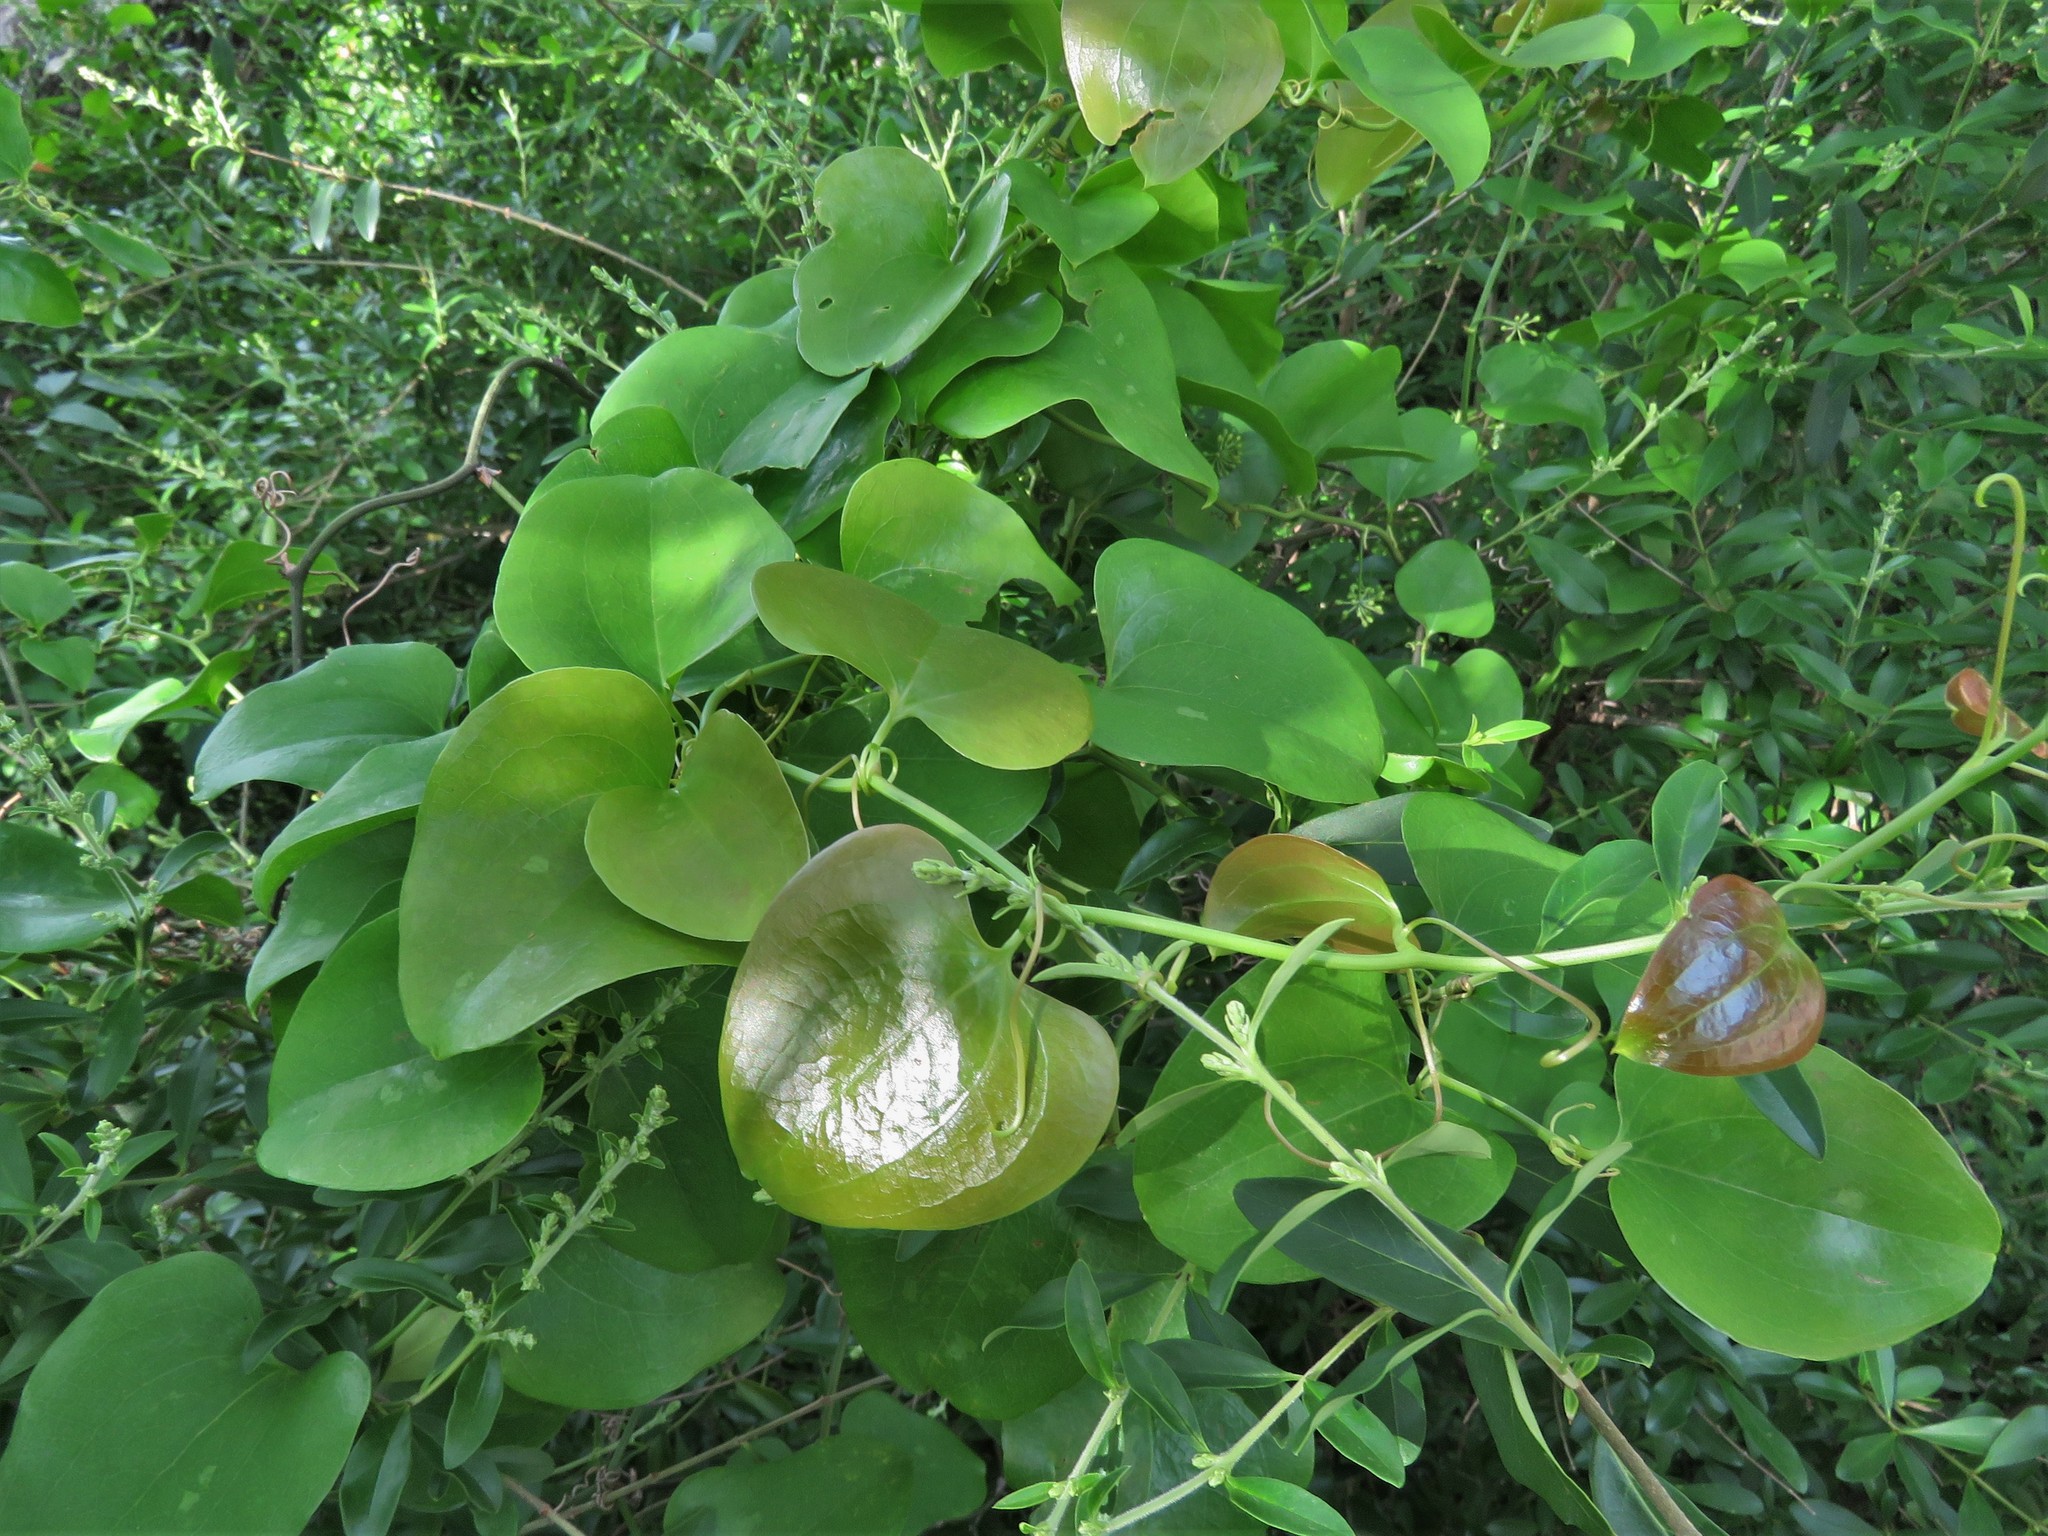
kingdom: Plantae
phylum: Tracheophyta
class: Liliopsida
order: Liliales
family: Smilacaceae
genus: Smilax
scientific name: Smilax bona-nox
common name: Catbrier
